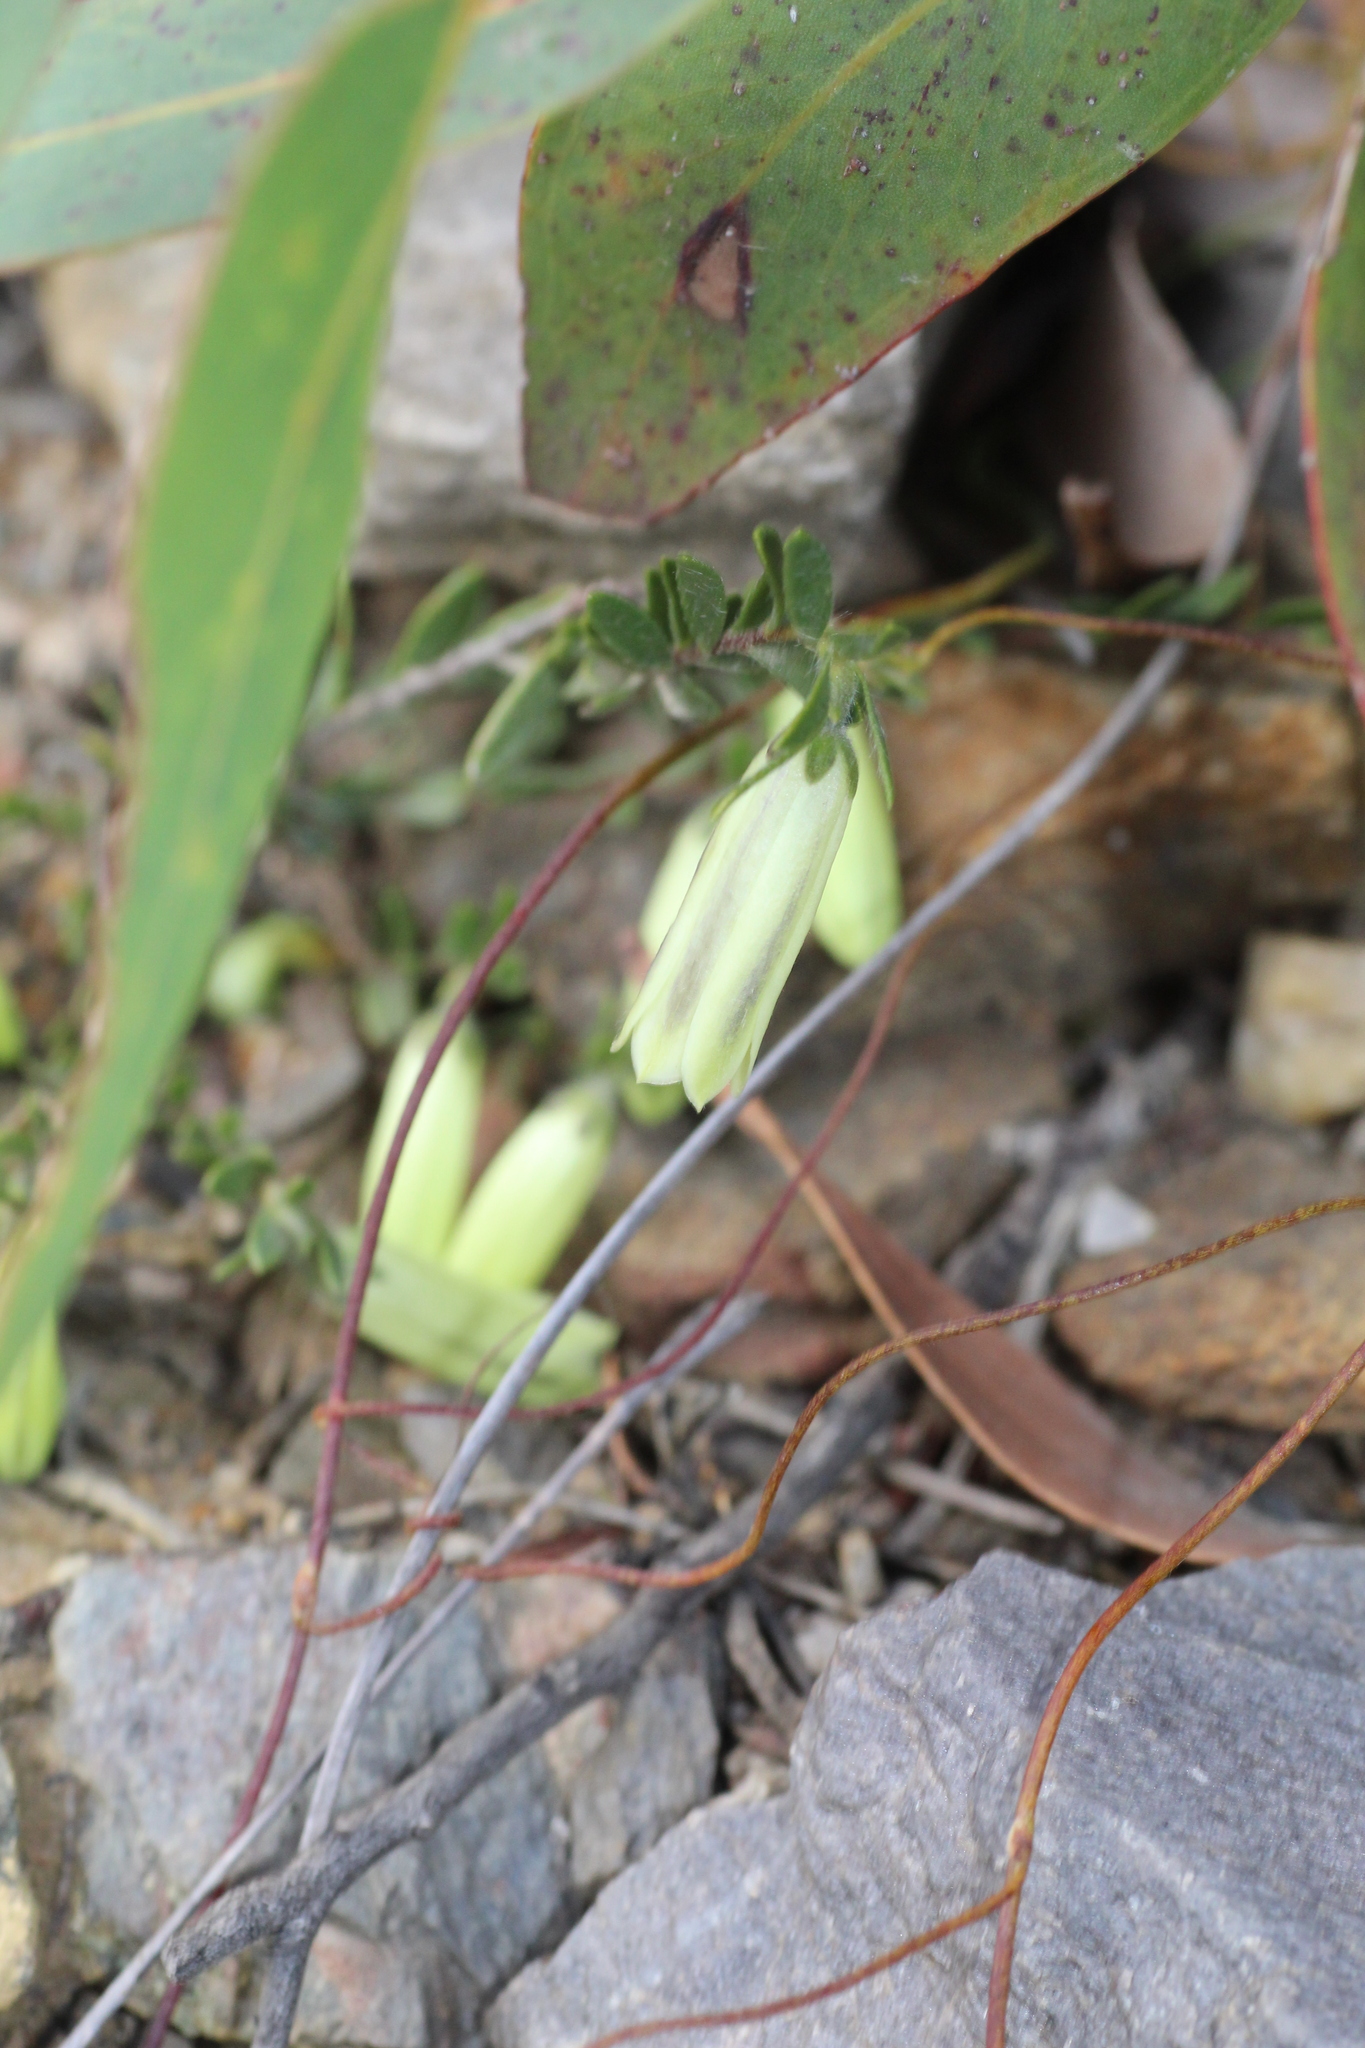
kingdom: Plantae
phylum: Tracheophyta
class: Magnoliopsida
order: Sapindales
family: Rutaceae
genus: Muiriantha
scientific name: Muiriantha hassellii
